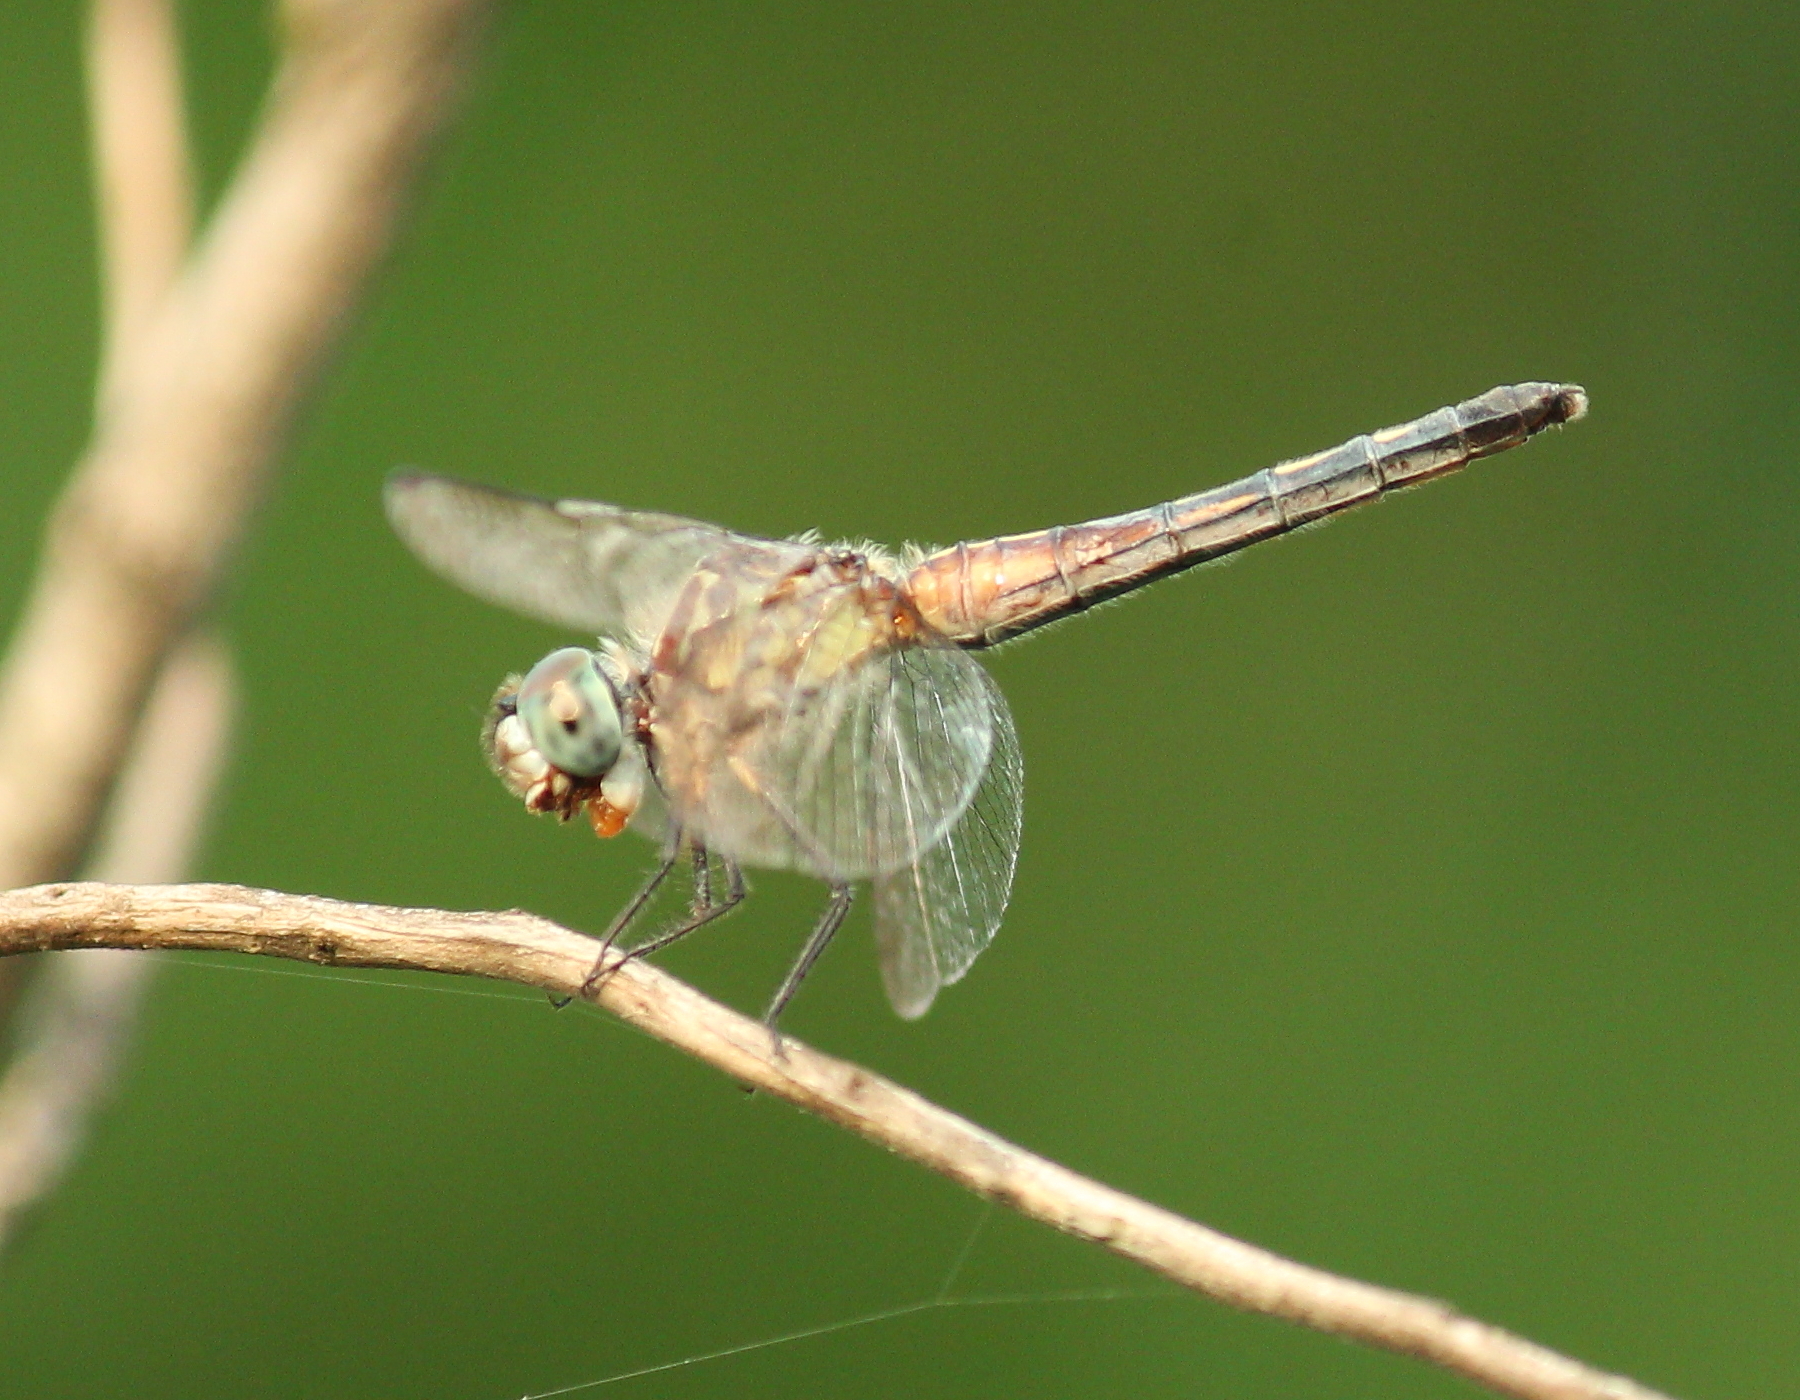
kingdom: Animalia
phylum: Arthropoda
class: Insecta
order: Odonata
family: Libellulidae
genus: Pachydiplax
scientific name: Pachydiplax longipennis
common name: Blue dasher
